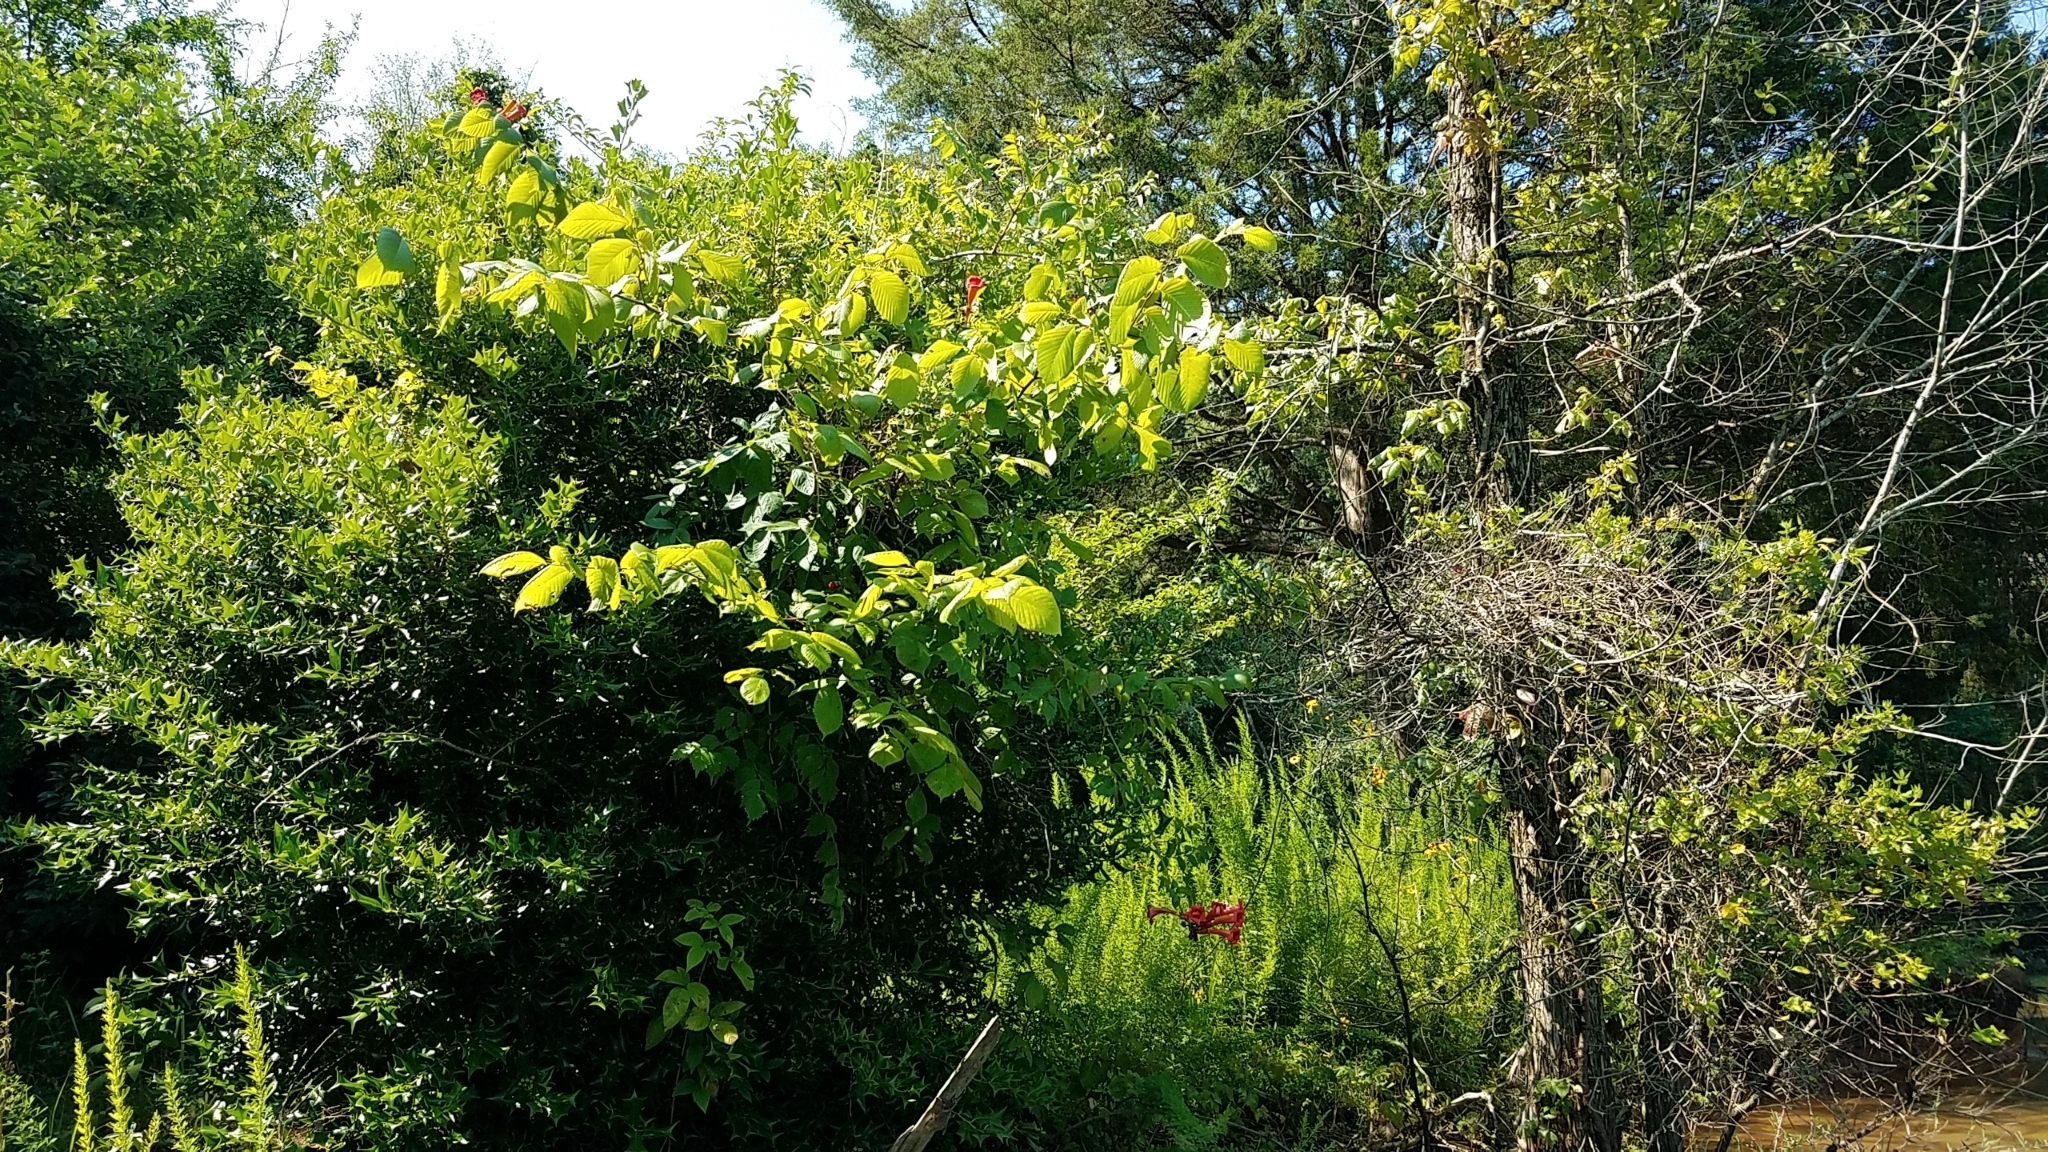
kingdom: Plantae
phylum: Tracheophyta
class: Magnoliopsida
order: Lamiales
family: Bignoniaceae
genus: Campsis
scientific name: Campsis radicans
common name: Trumpet-creeper
